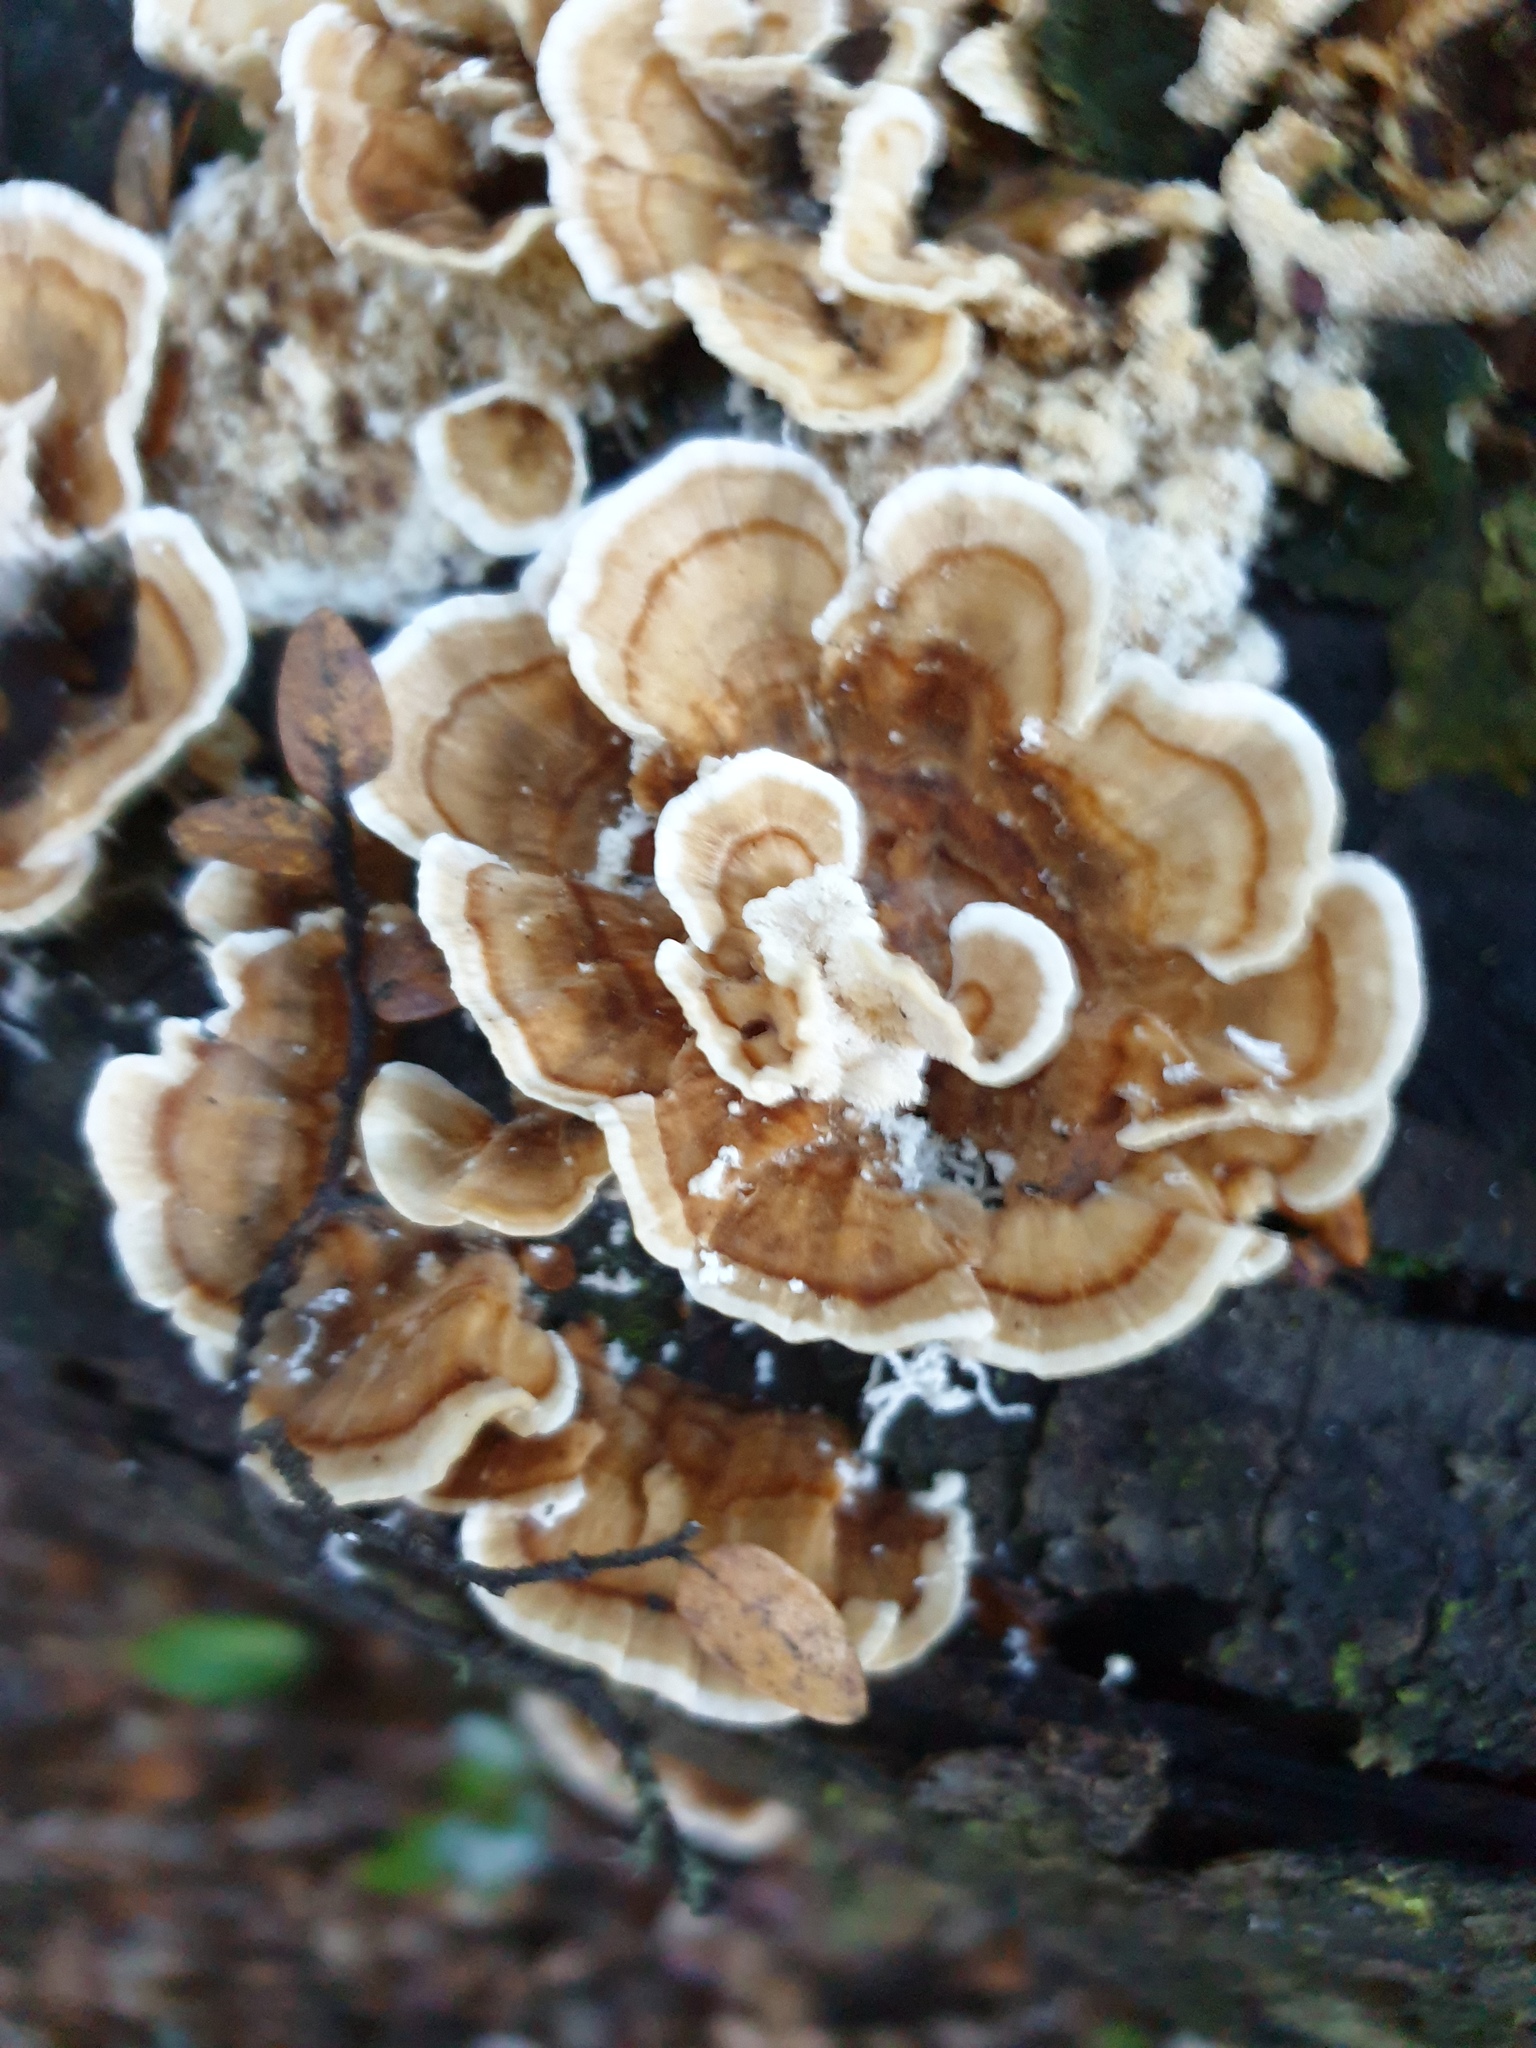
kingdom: Fungi
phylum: Basidiomycota
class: Agaricomycetes
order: Polyporales
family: Polyporaceae
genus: Trametes
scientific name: Trametes versicolor
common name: Turkeytail
